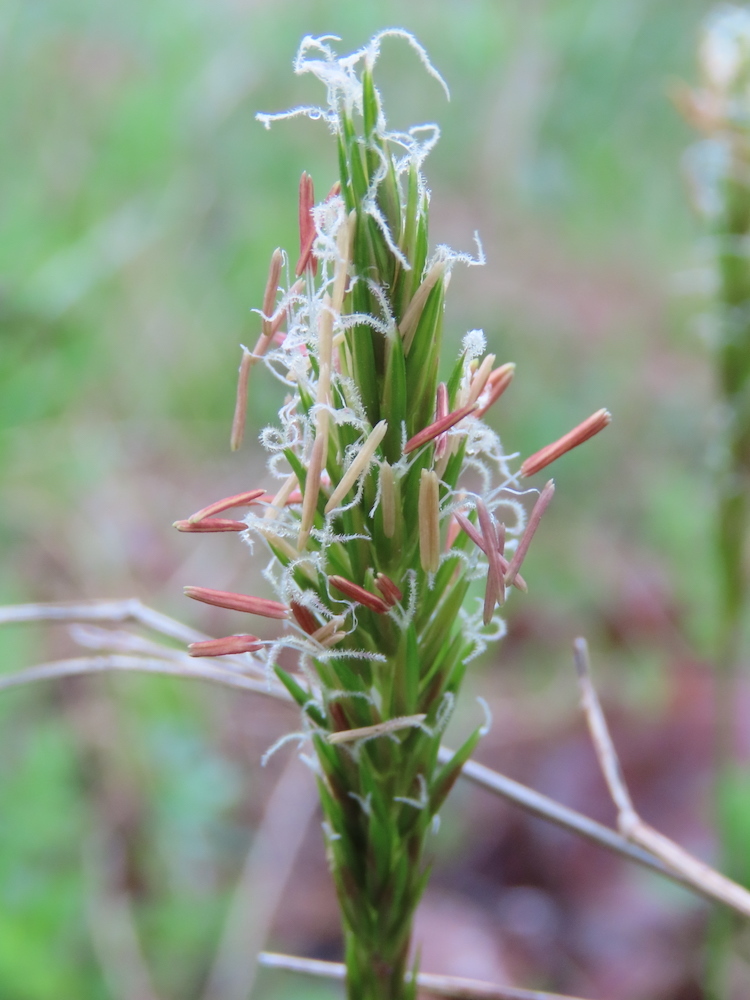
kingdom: Plantae
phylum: Tracheophyta
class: Liliopsida
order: Poales
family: Poaceae
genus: Anthoxanthum
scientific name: Anthoxanthum odoratum
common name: Sweet vernalgrass
